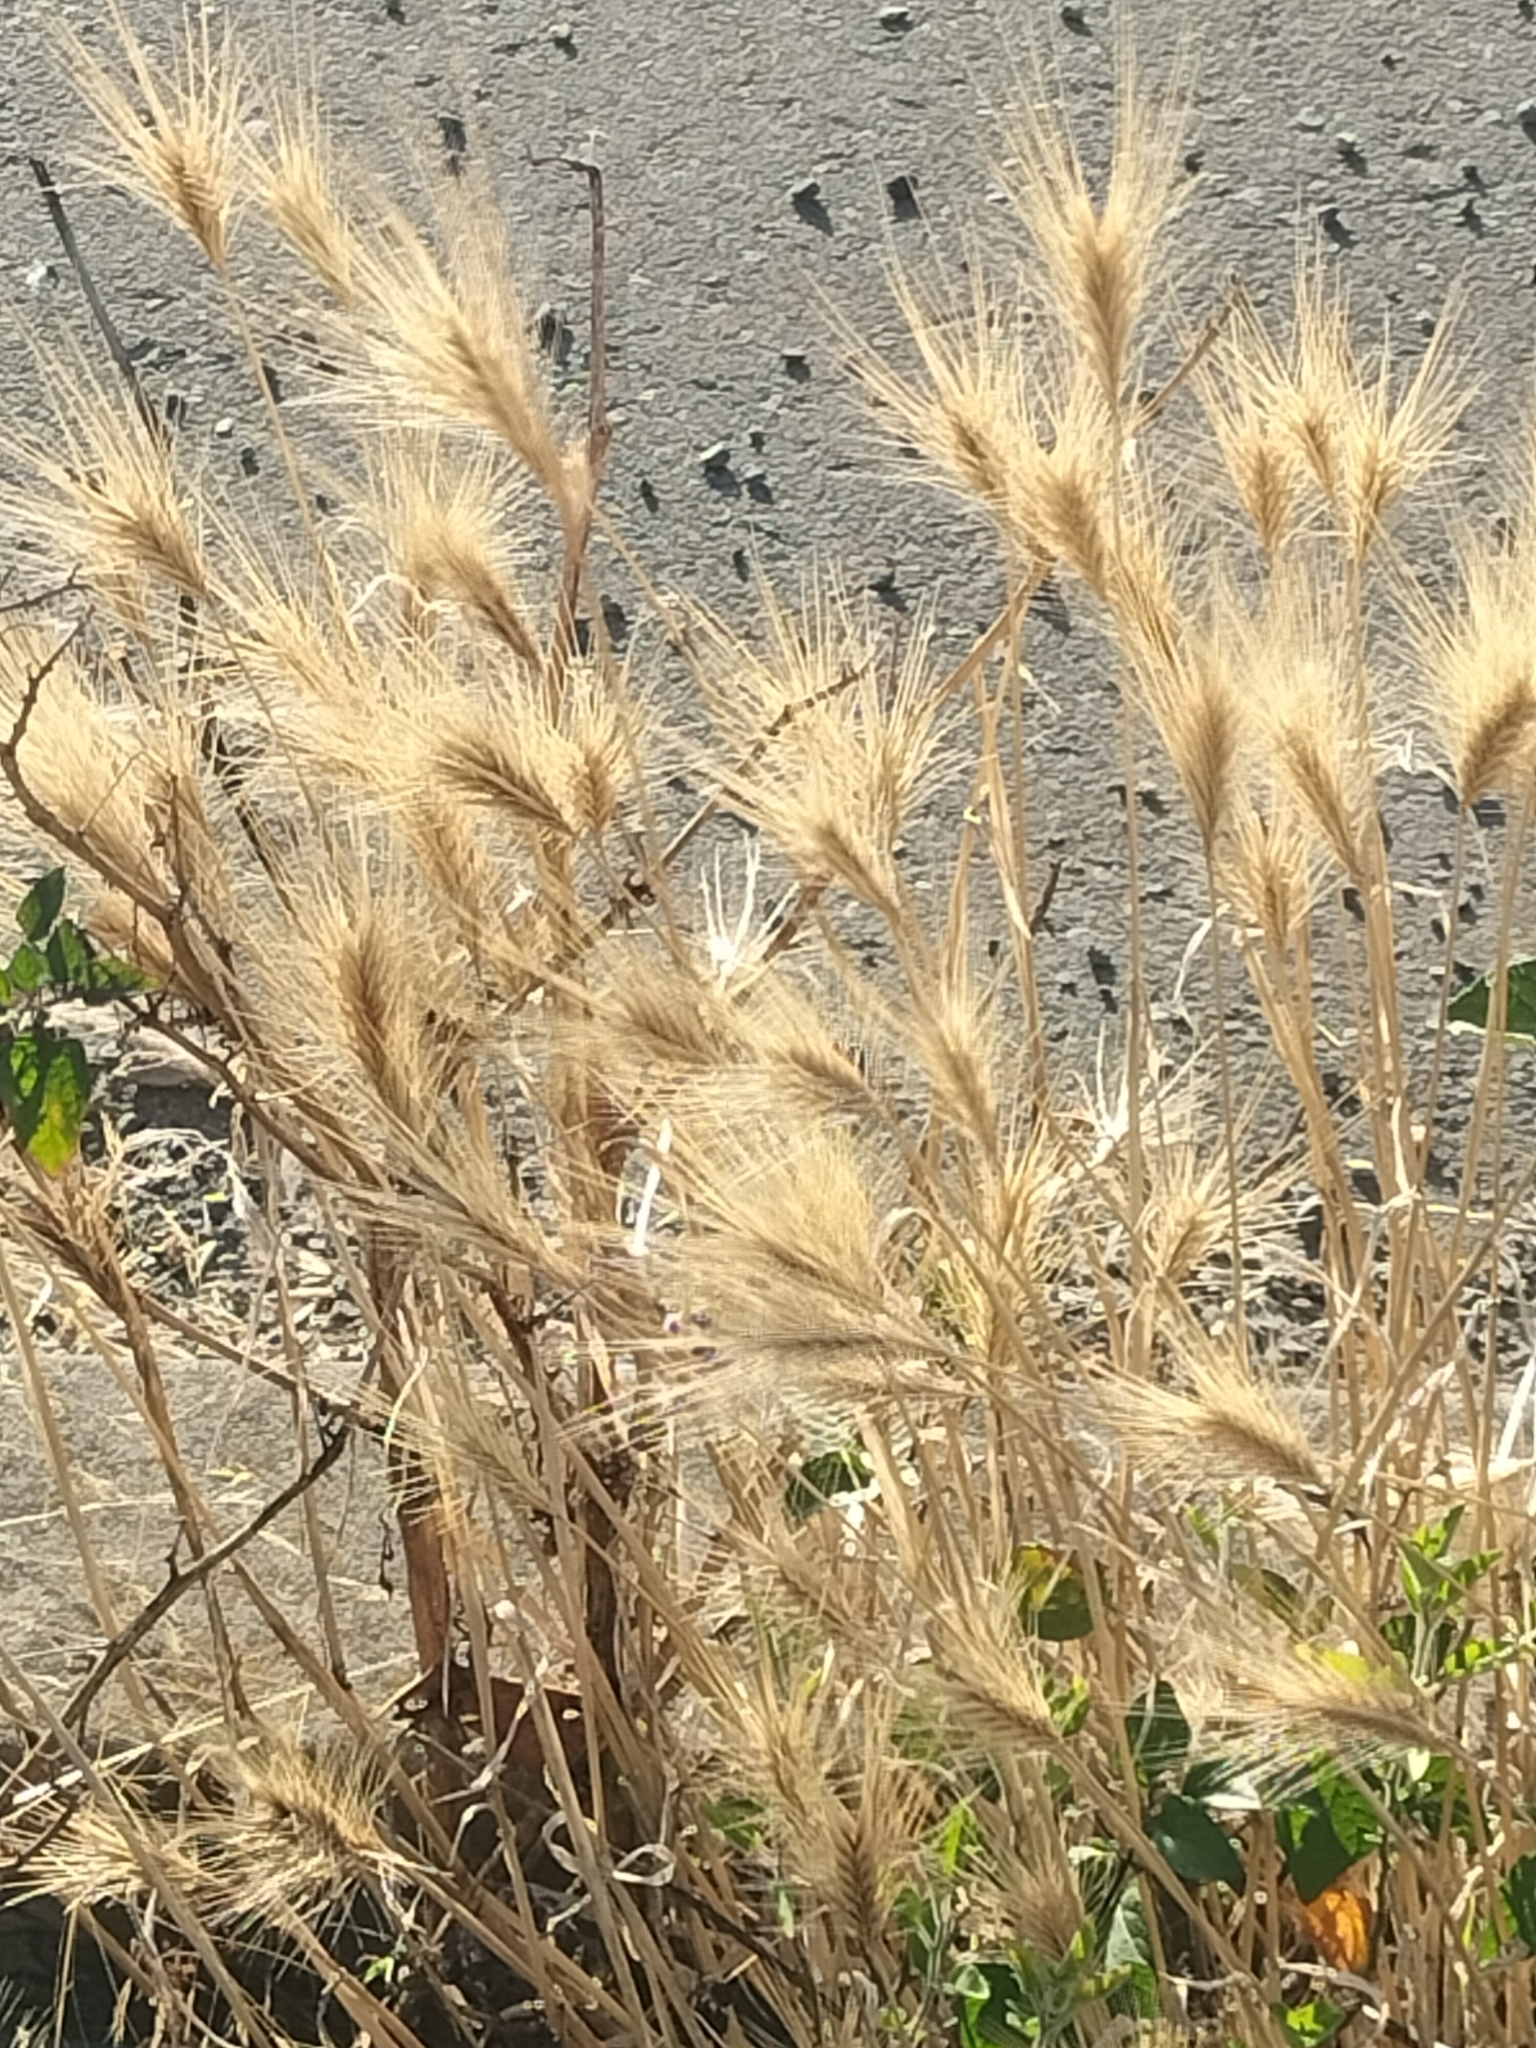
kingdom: Plantae
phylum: Tracheophyta
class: Liliopsida
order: Poales
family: Poaceae
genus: Hordeum
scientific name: Hordeum murinum
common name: Wall barley
